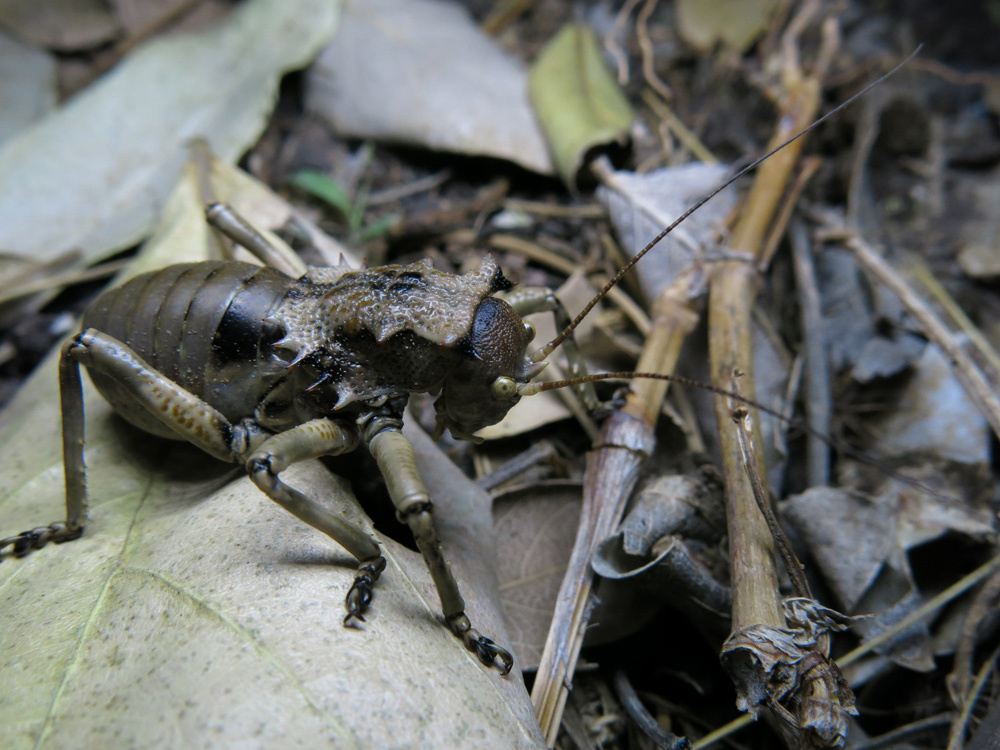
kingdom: Animalia
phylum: Arthropoda
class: Insecta
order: Orthoptera
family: Tettigoniidae
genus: Enyaliopsis
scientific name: Enyaliopsis transvaalensis
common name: Northern armoured katydid
